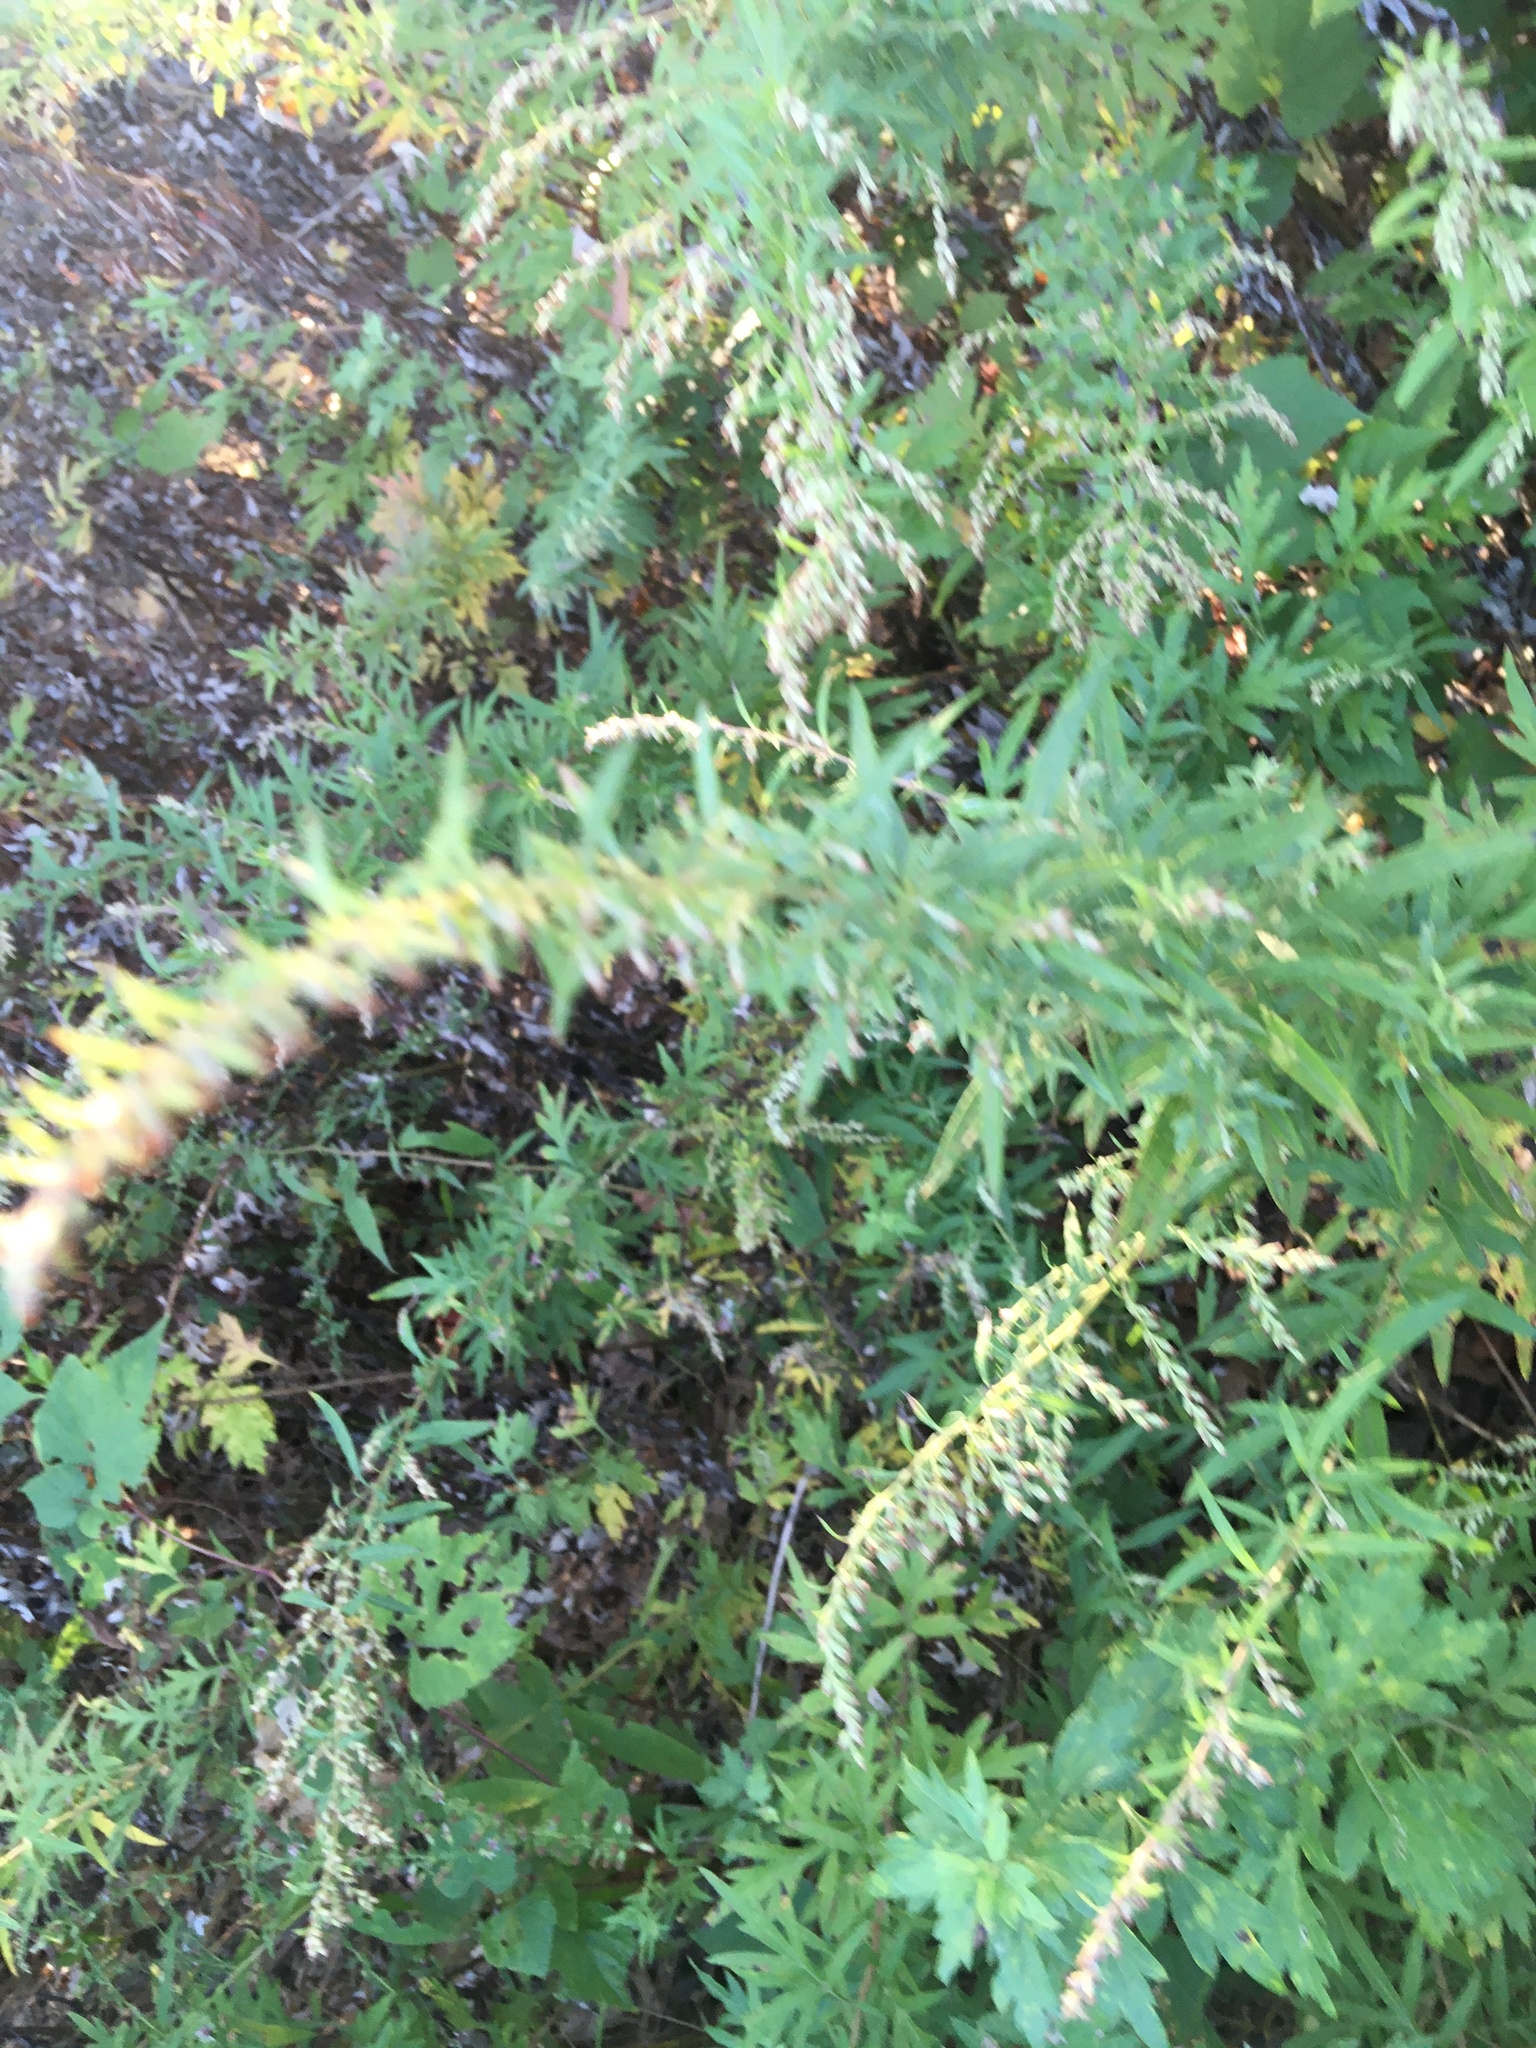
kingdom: Plantae
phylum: Tracheophyta
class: Magnoliopsida
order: Asterales
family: Asteraceae
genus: Artemisia
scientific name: Artemisia vulgaris
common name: Mugwort
